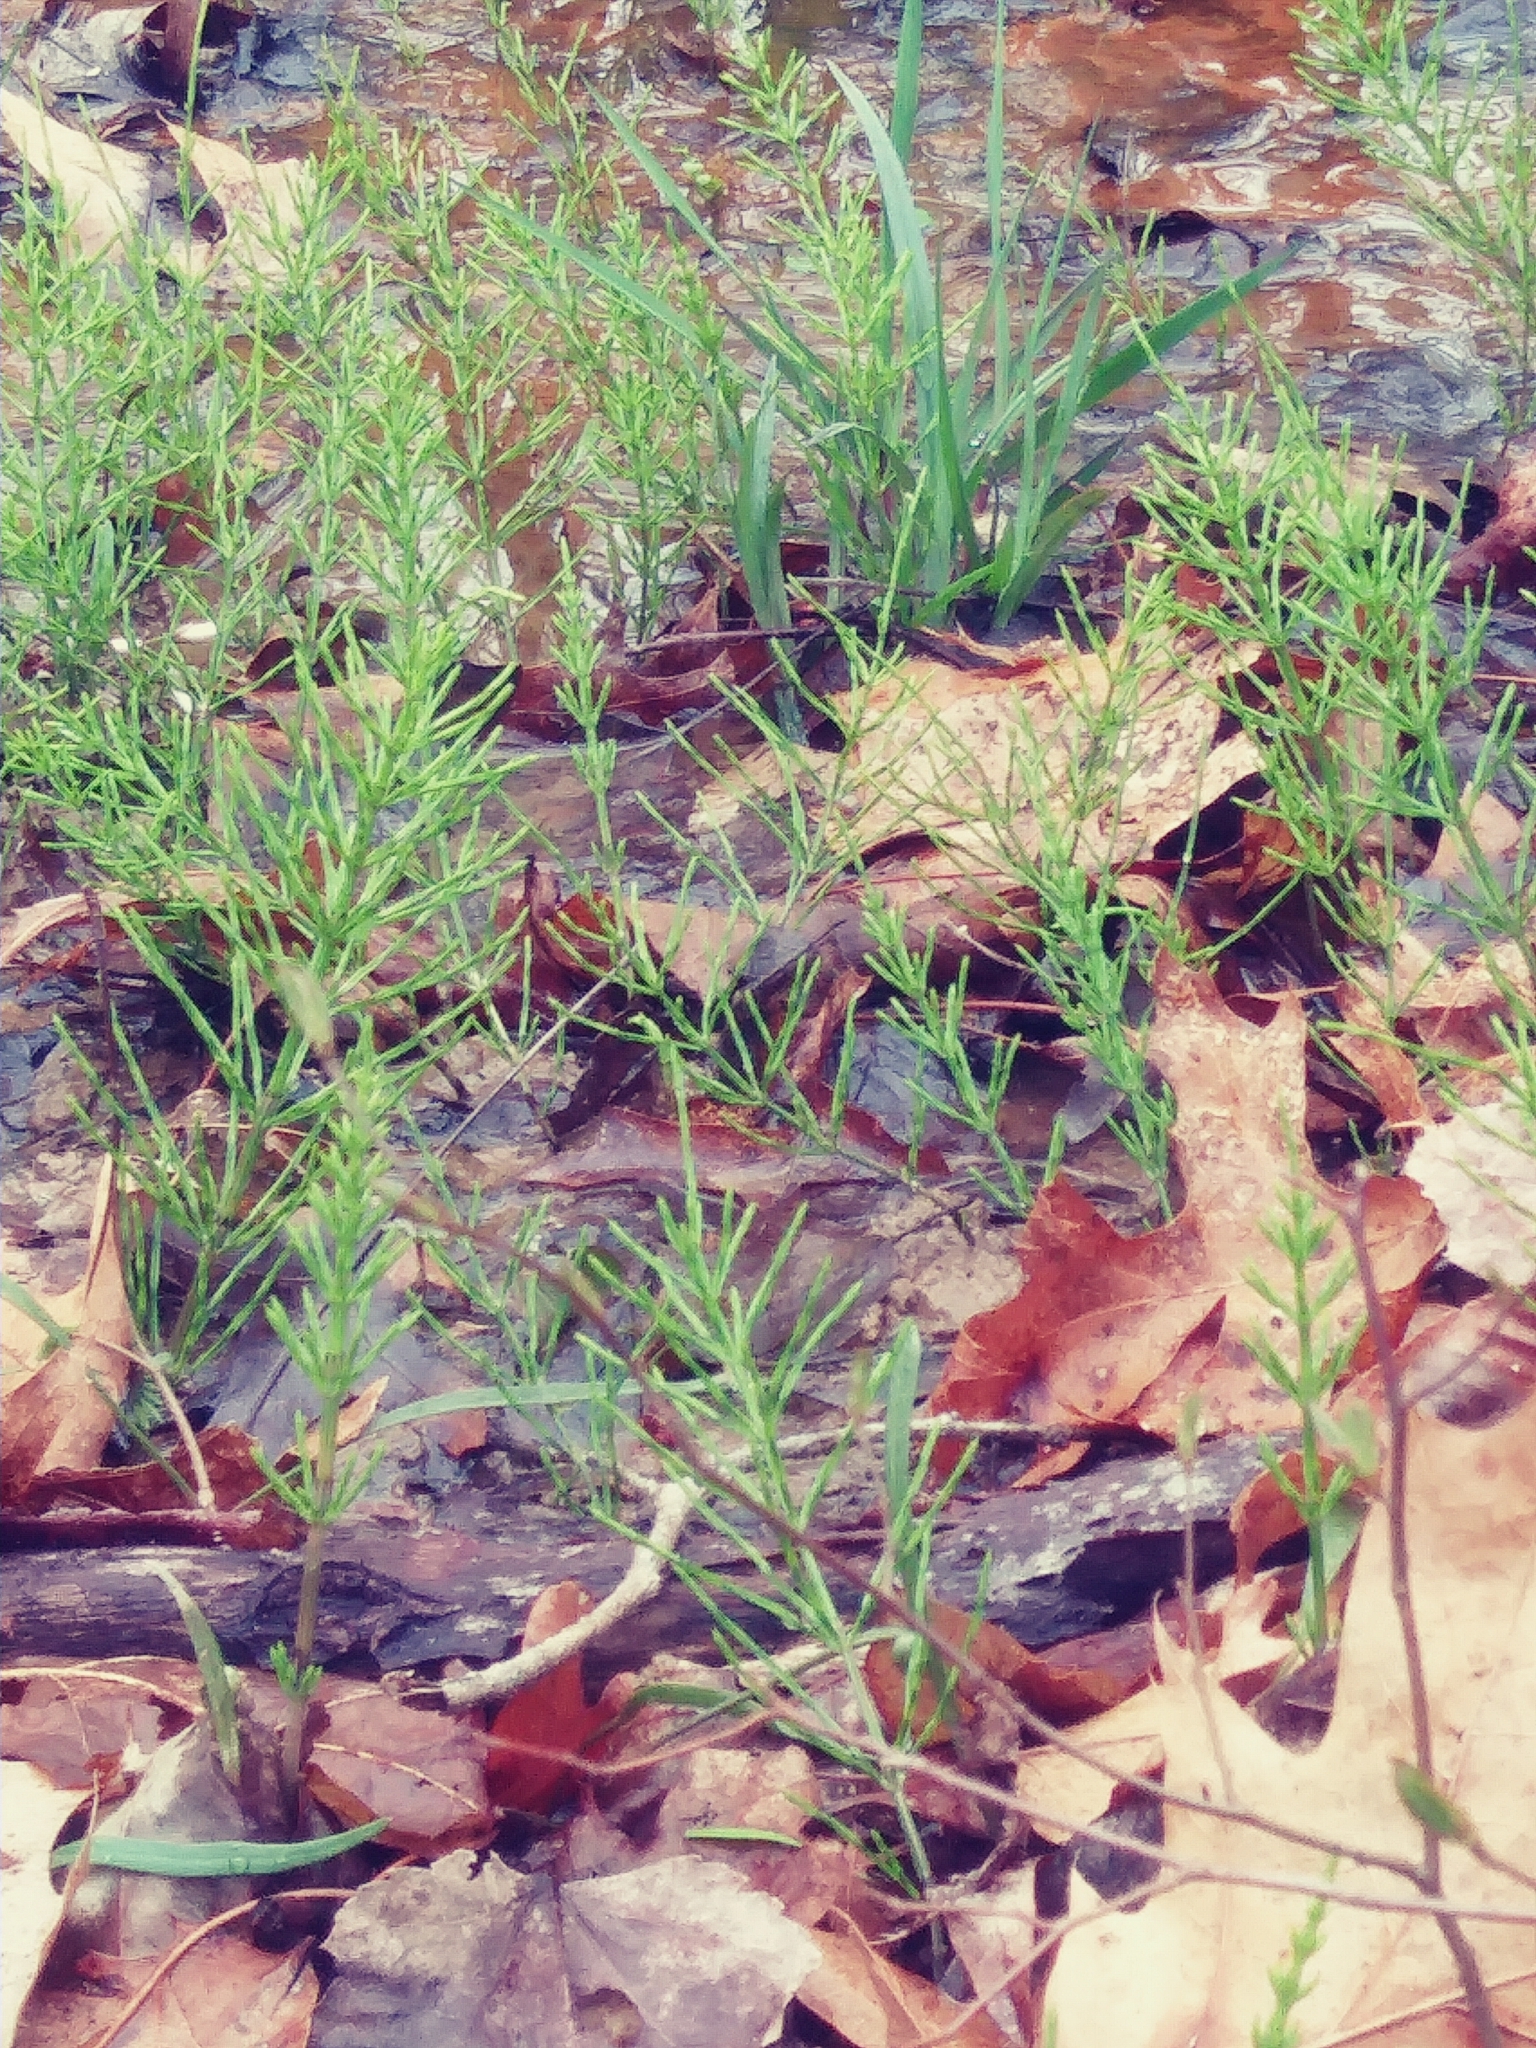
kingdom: Plantae
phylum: Tracheophyta
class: Polypodiopsida
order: Equisetales
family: Equisetaceae
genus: Equisetum
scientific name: Equisetum arvense
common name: Field horsetail
